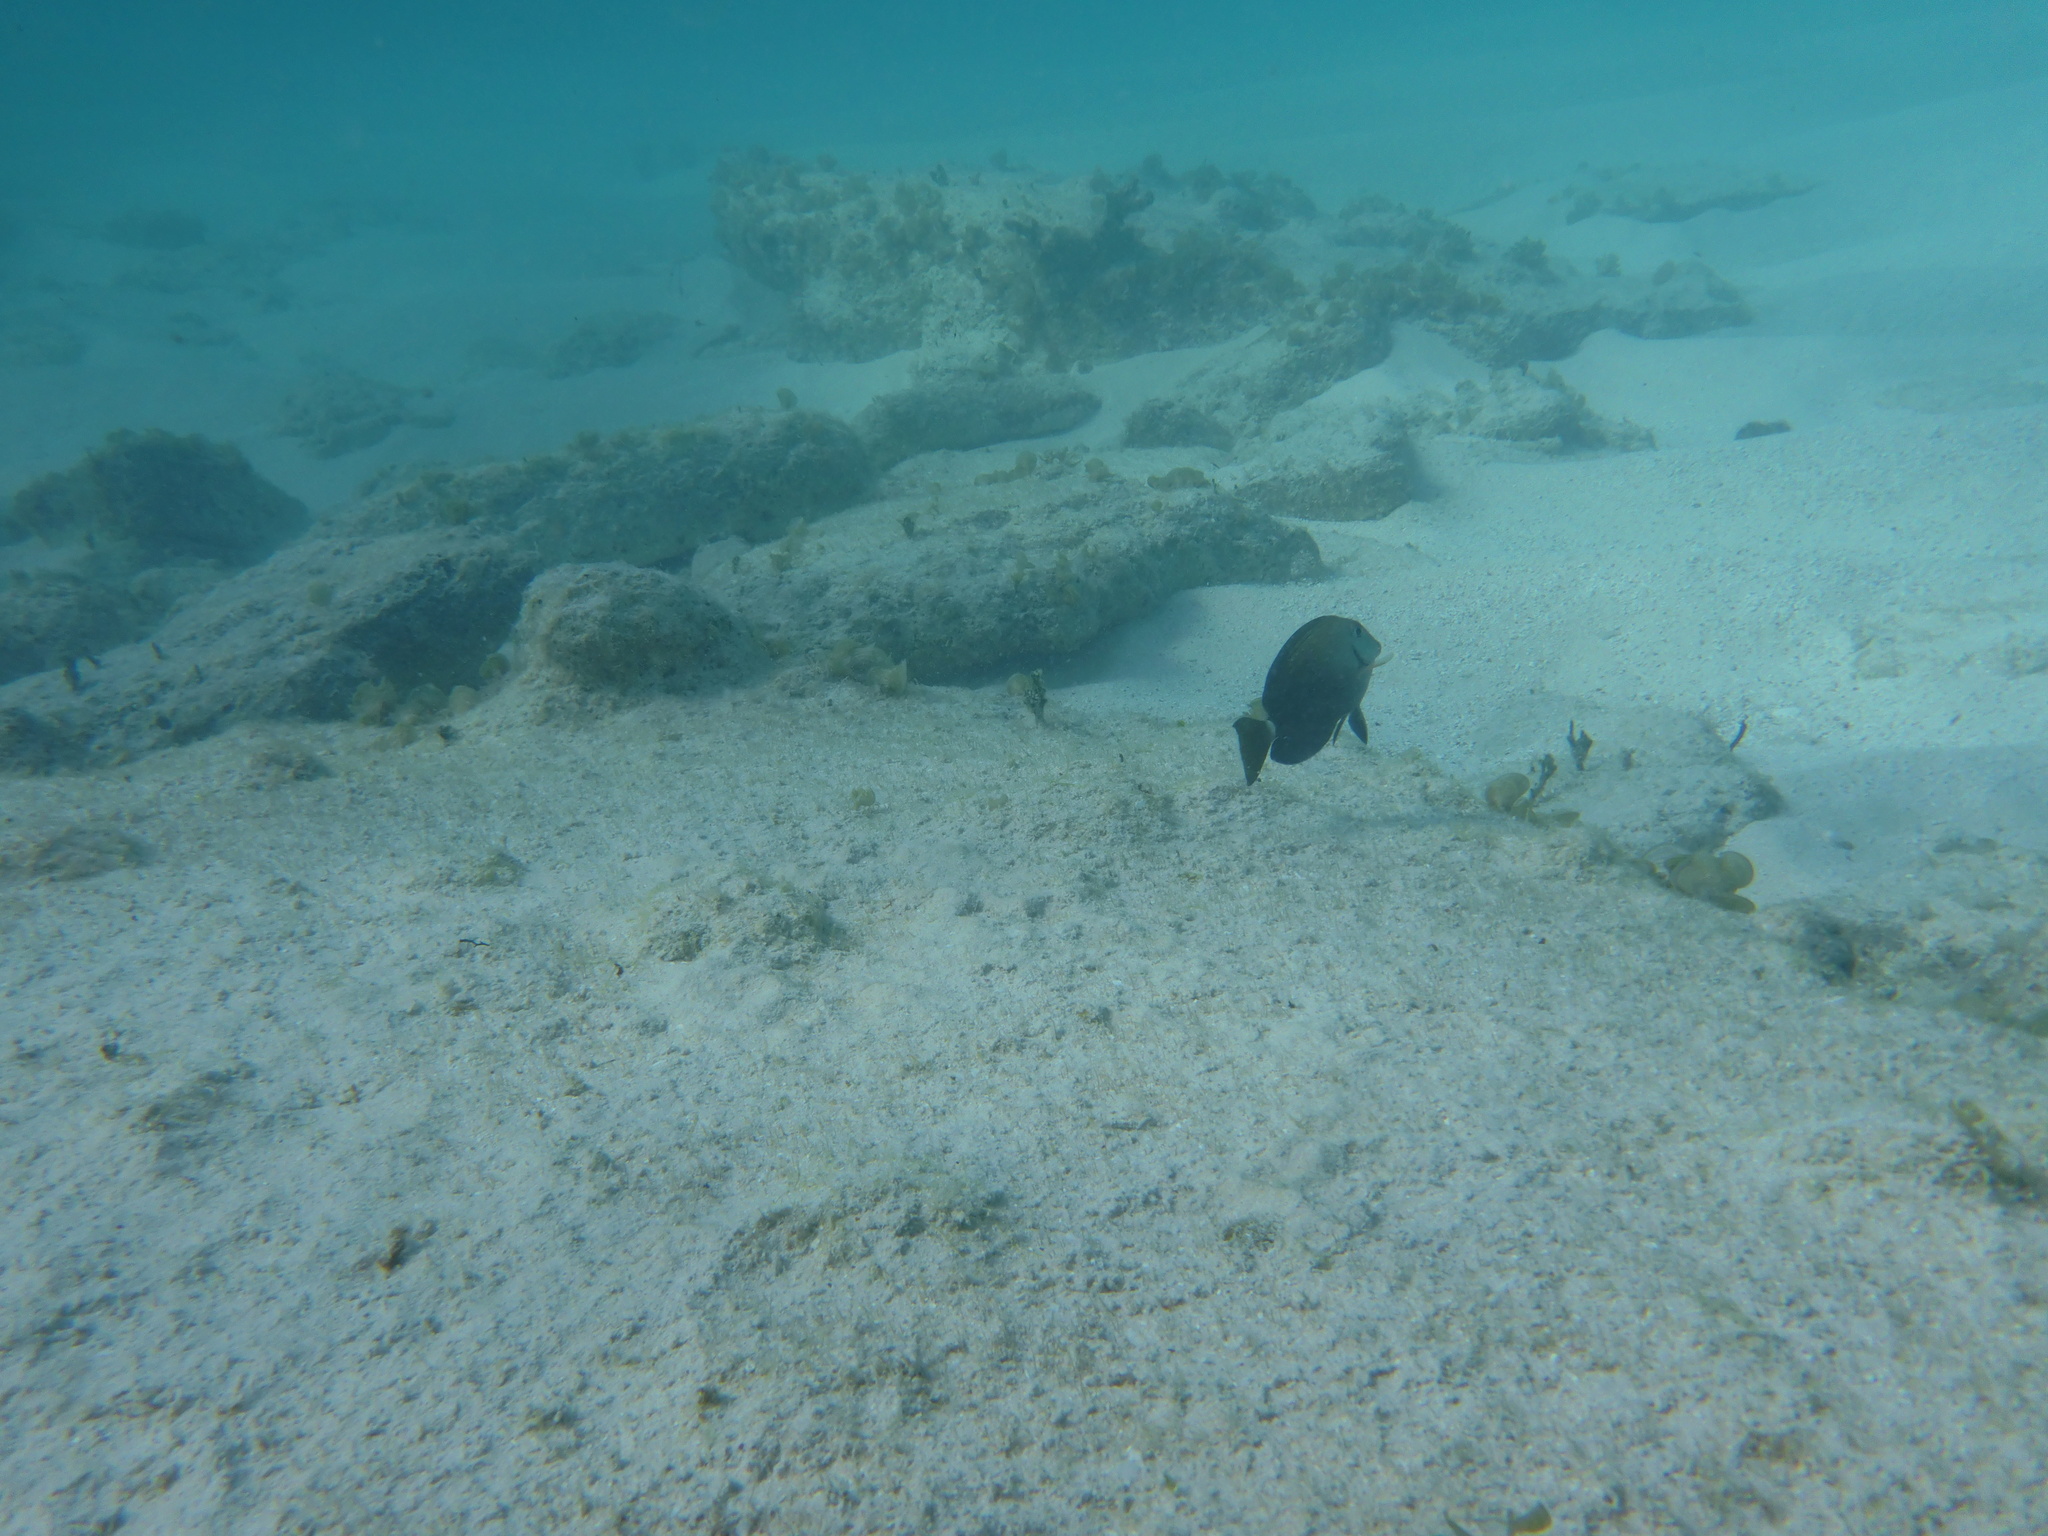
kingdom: Animalia
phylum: Chordata
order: Perciformes
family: Acanthuridae
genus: Acanthurus
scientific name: Acanthurus bahianus
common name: Ocean surgeon
